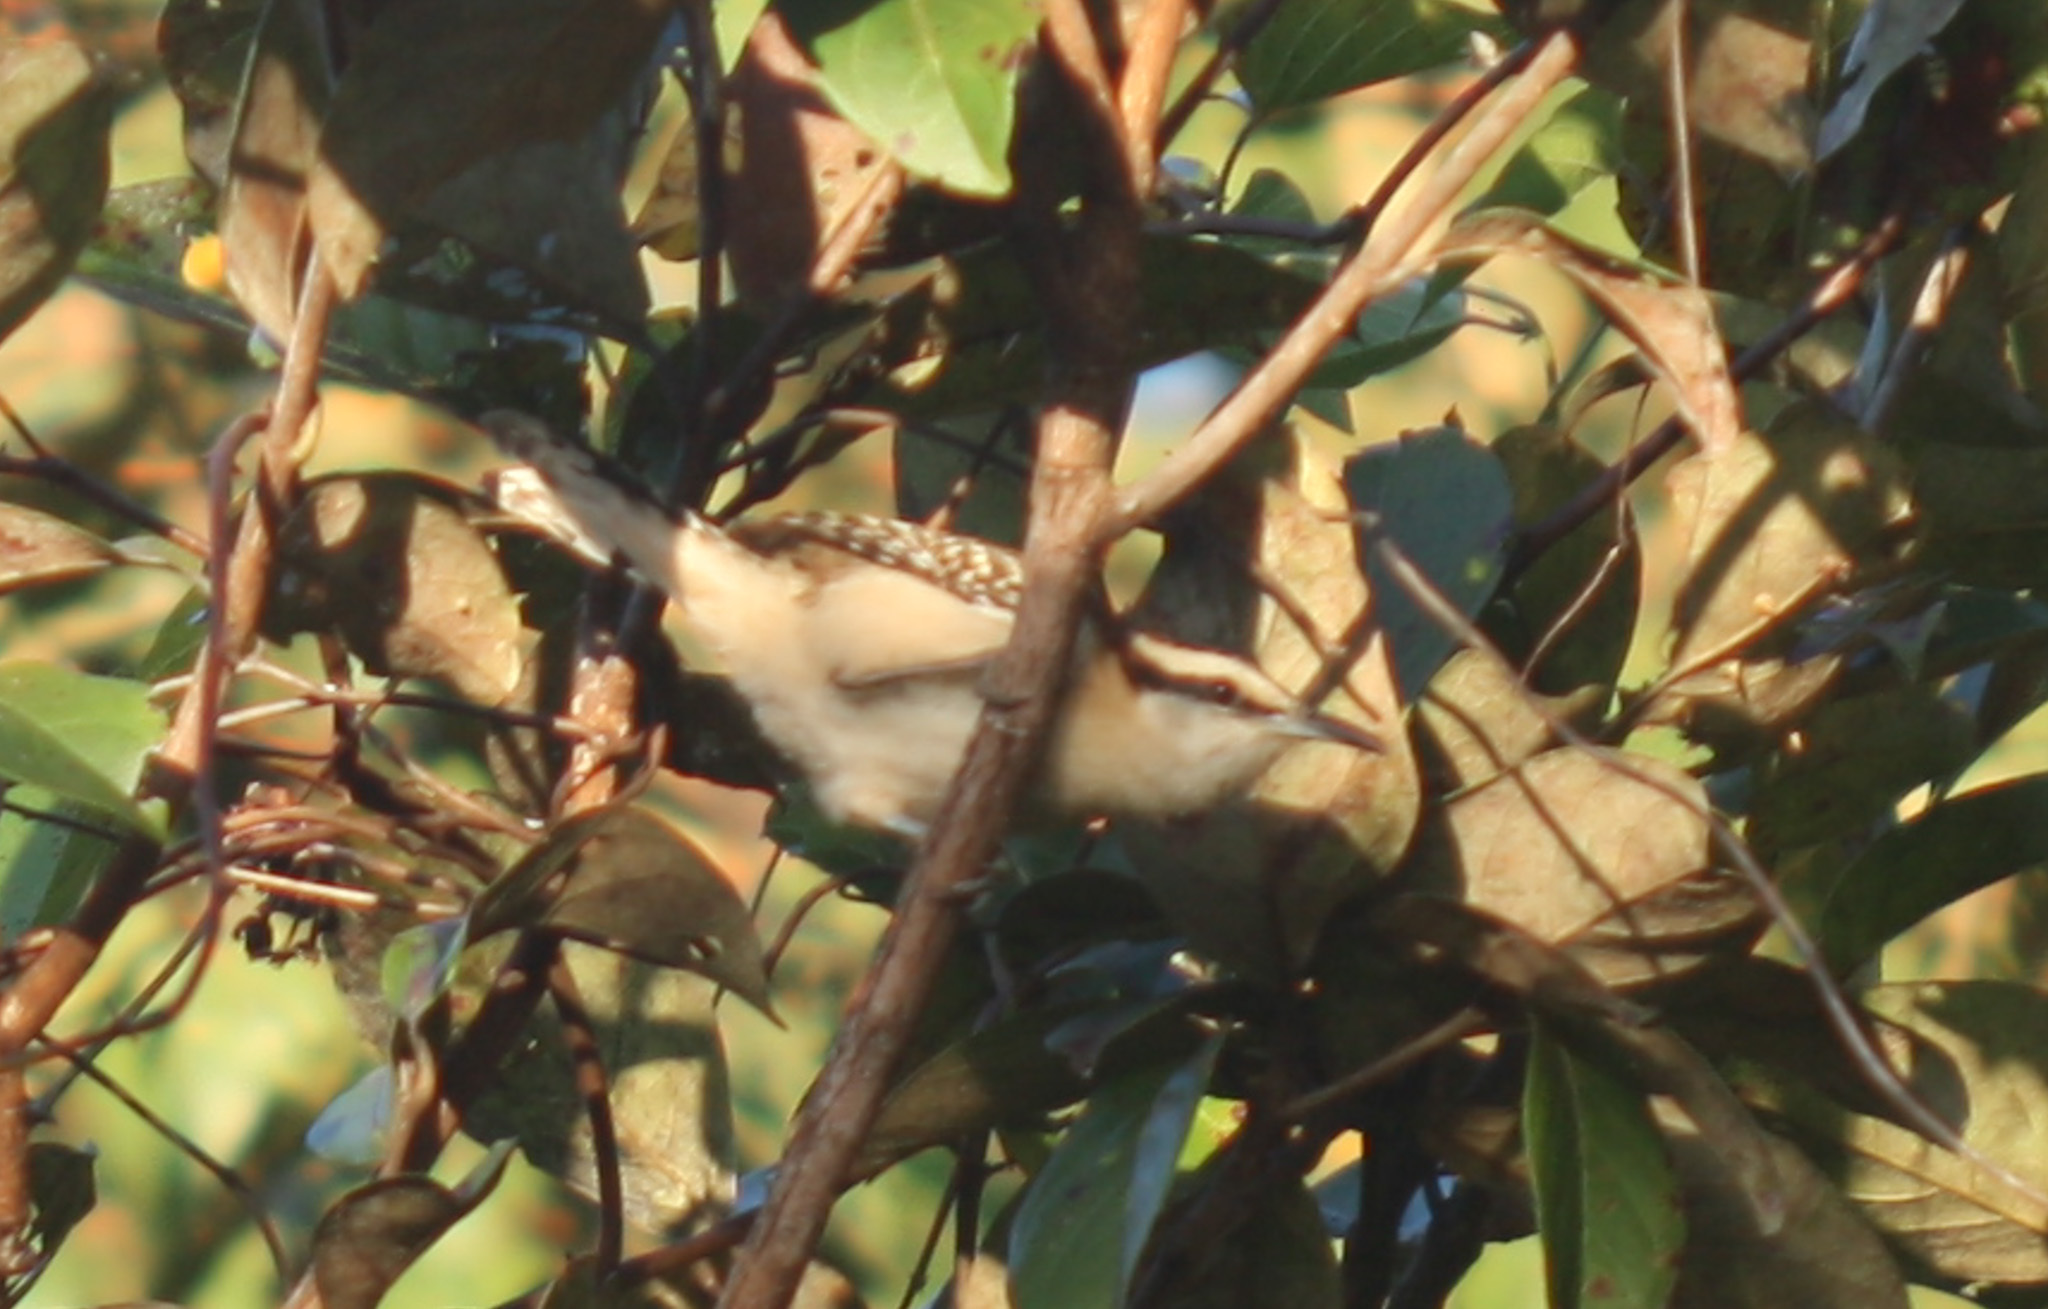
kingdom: Animalia
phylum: Chordata
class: Aves
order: Passeriformes
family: Troglodytidae
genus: Campylorhynchus
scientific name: Campylorhynchus rufinucha
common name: Rufous-naped wren
